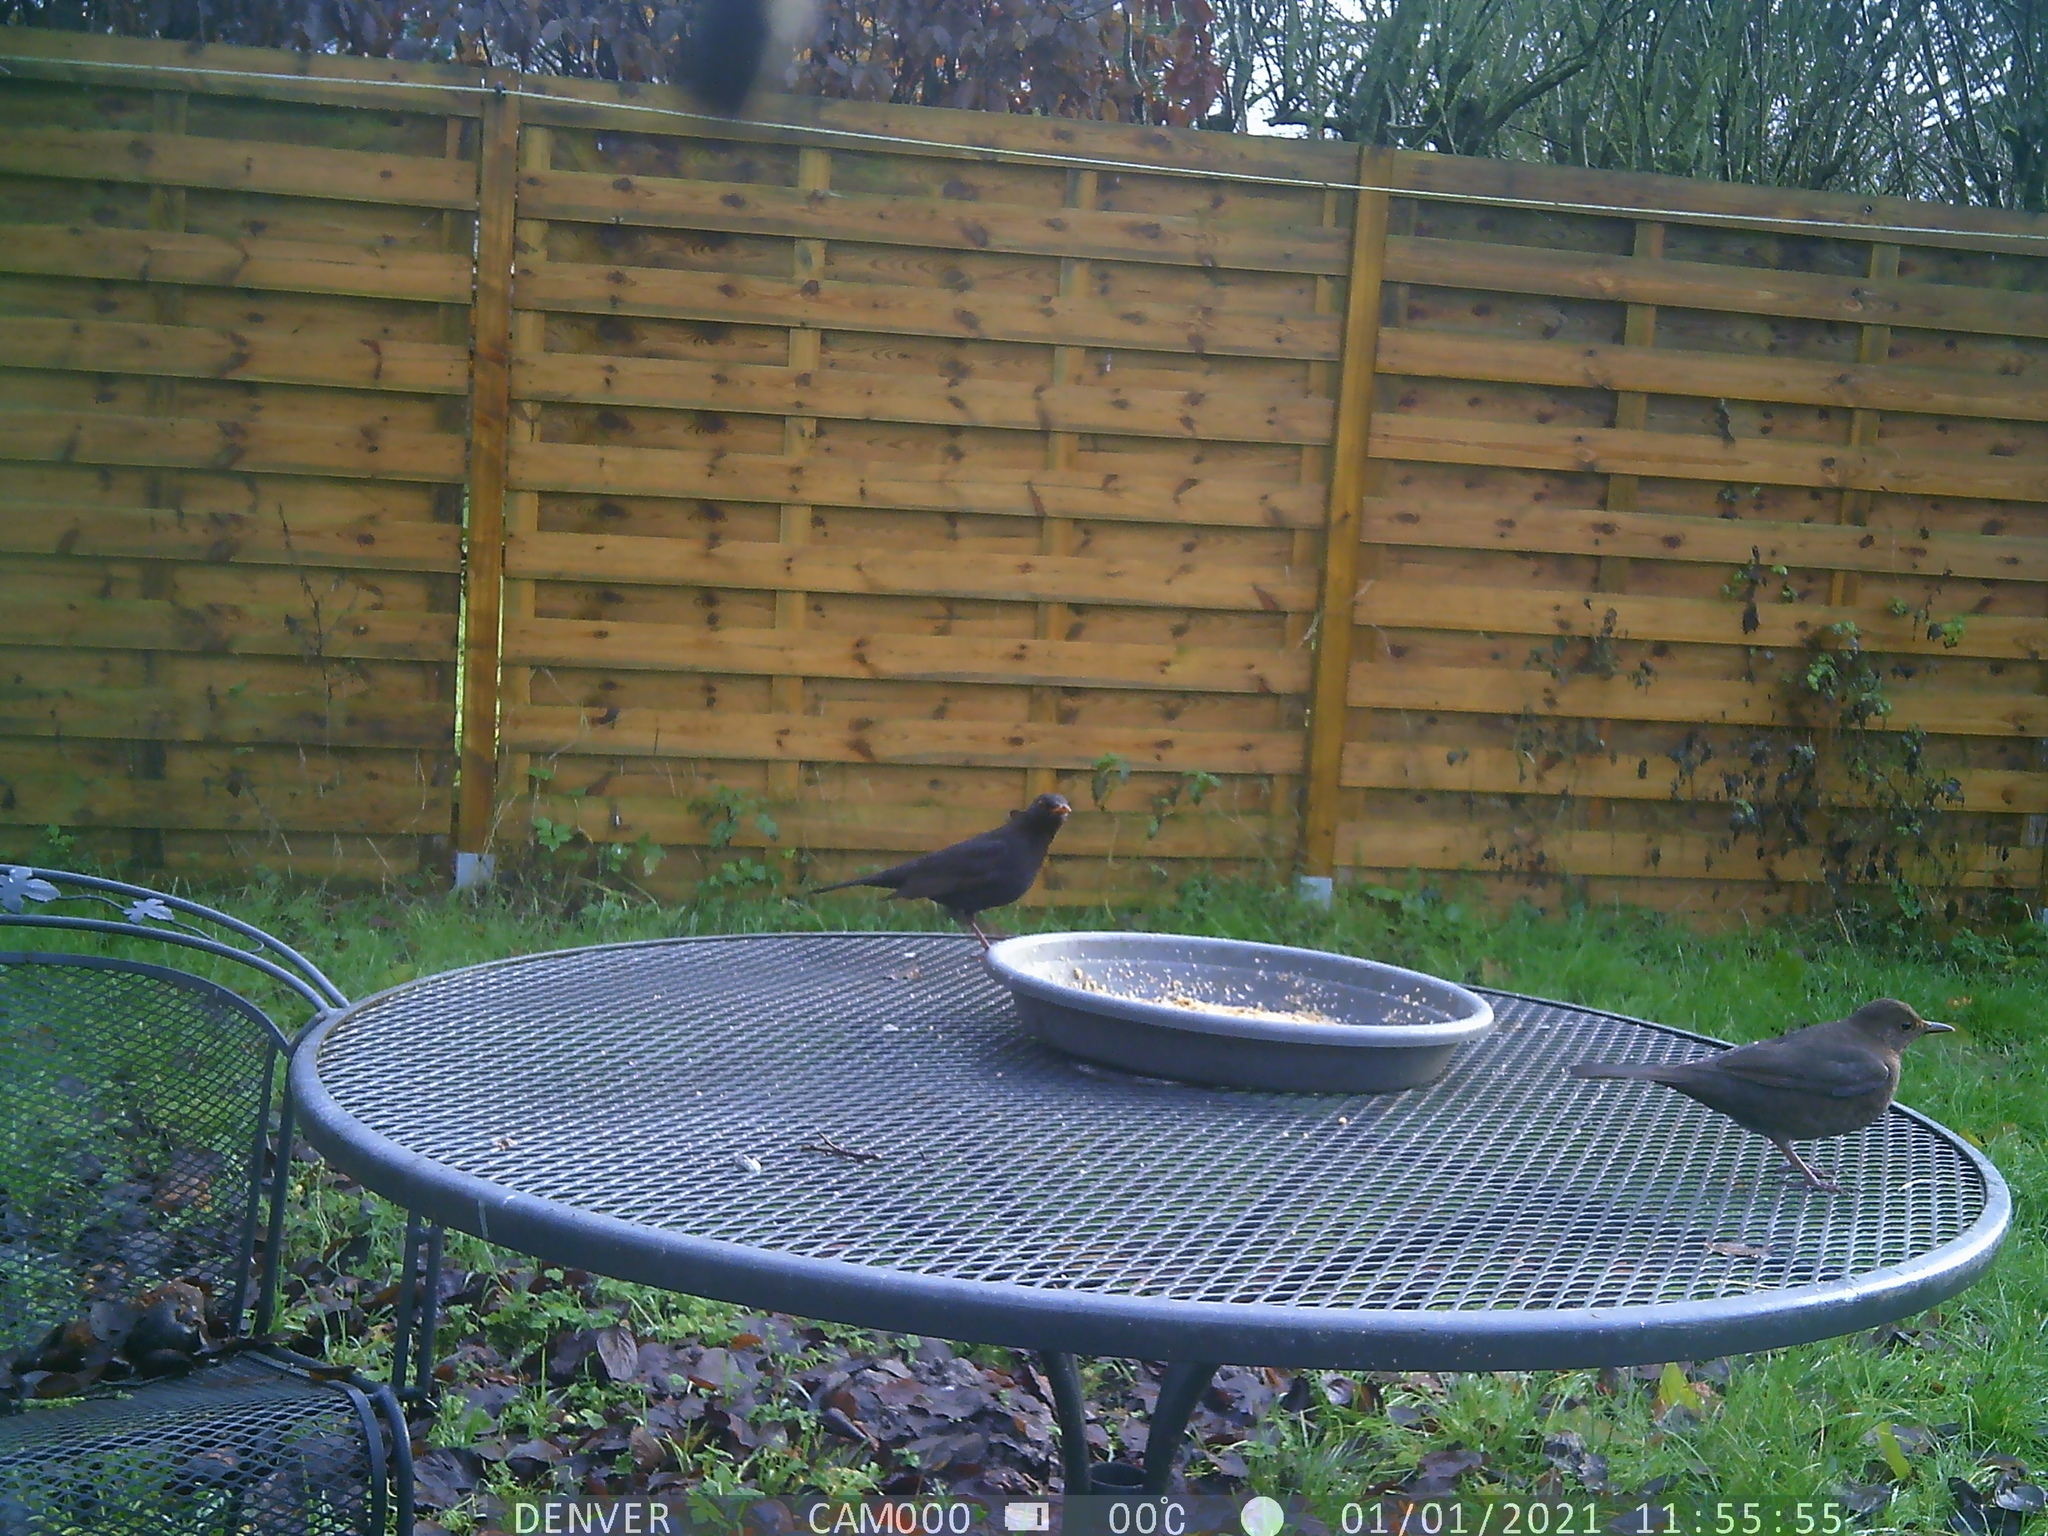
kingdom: Animalia
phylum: Chordata
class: Aves
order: Passeriformes
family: Turdidae
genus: Turdus
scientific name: Turdus merula
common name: Common blackbird
